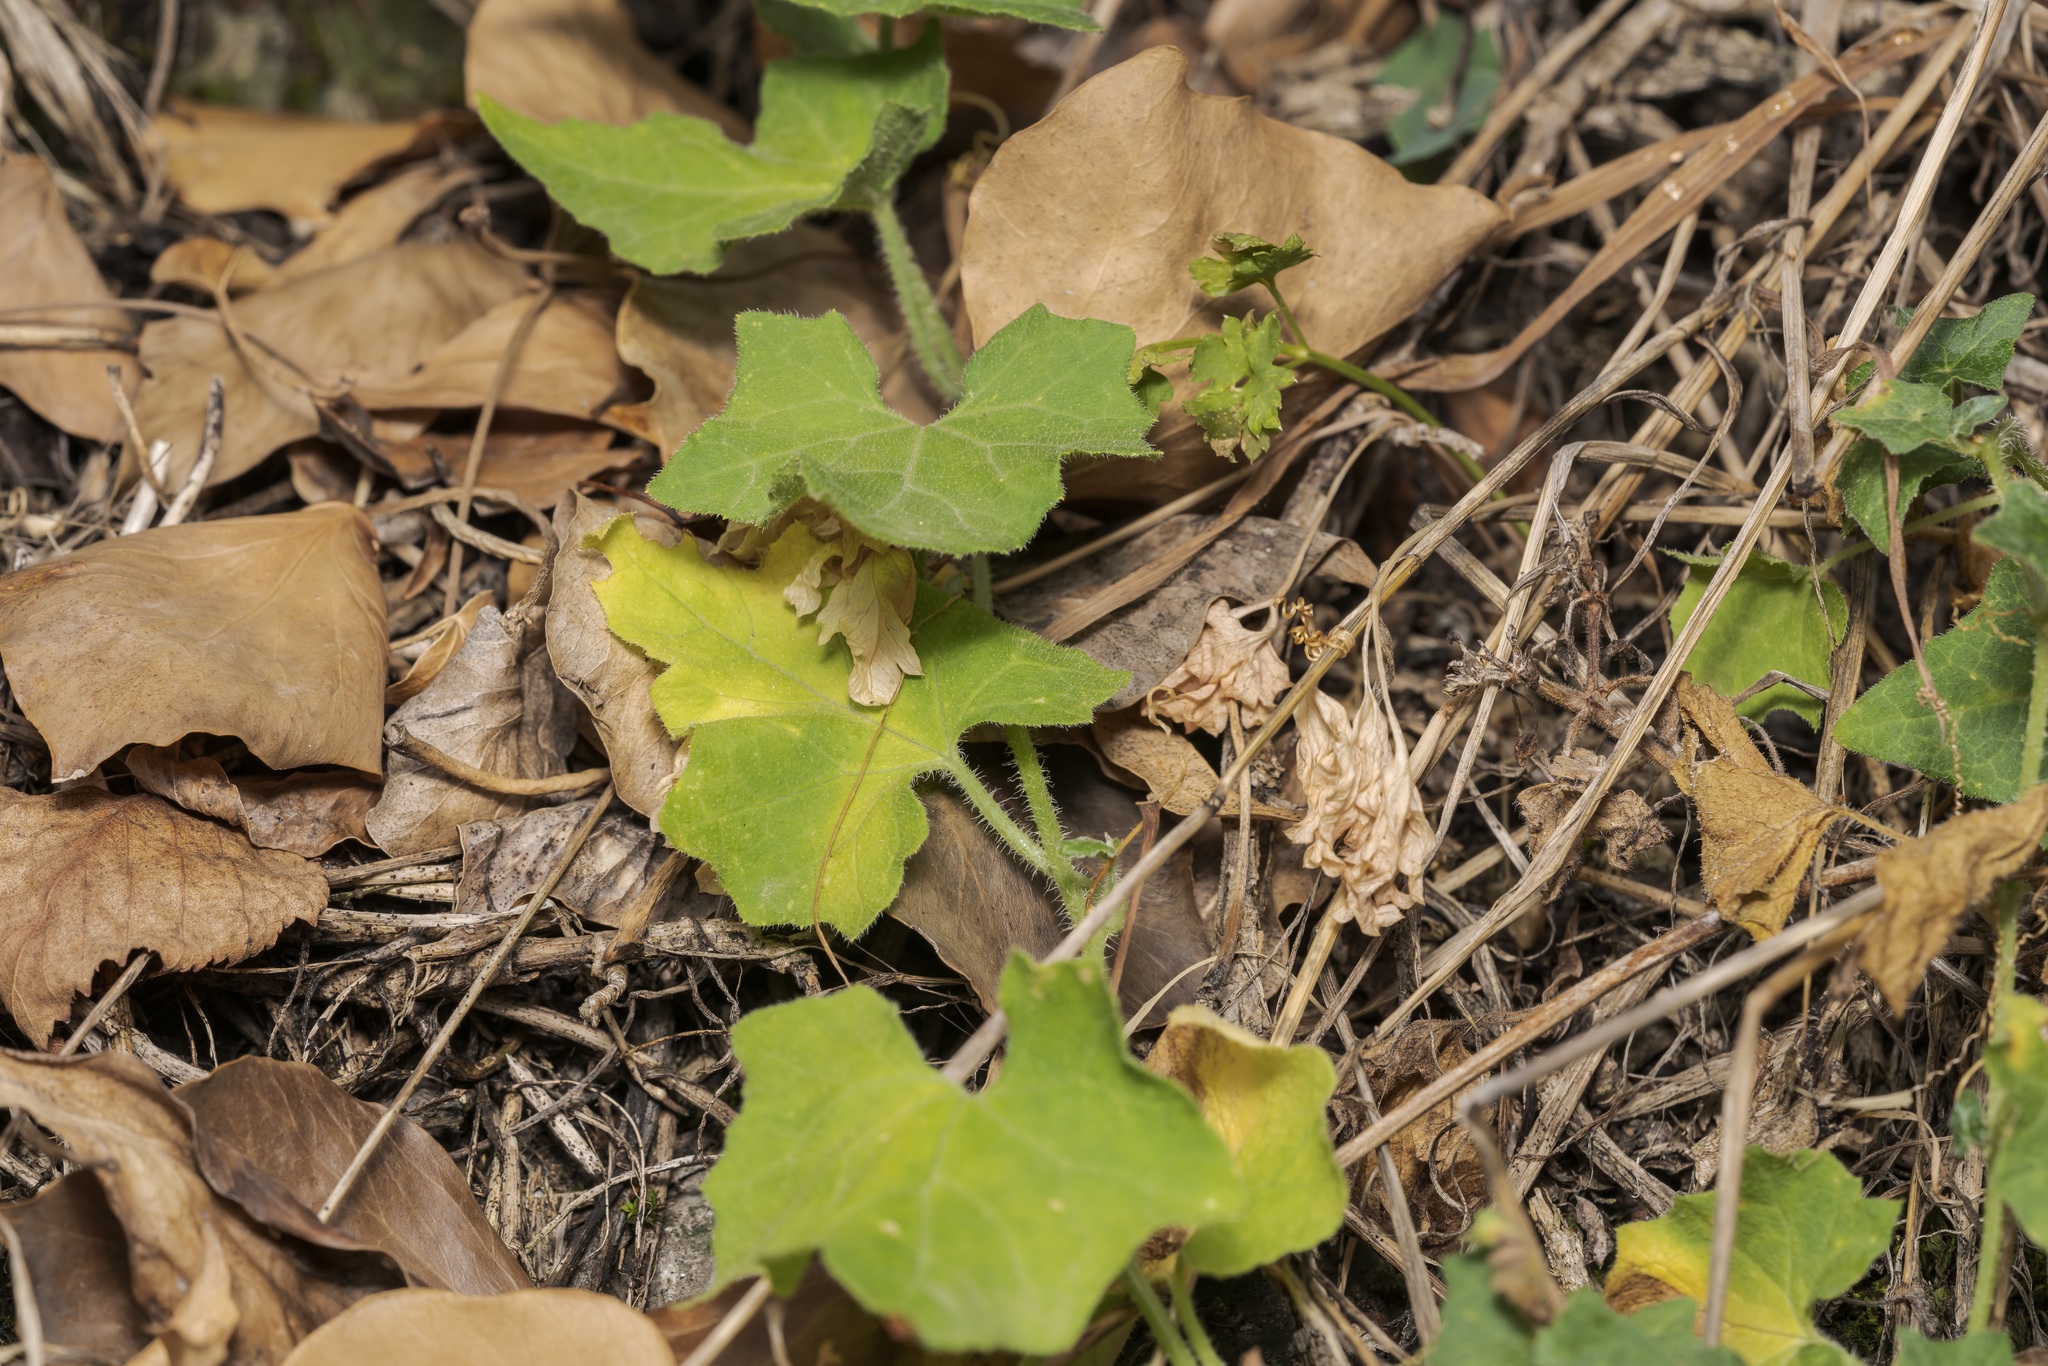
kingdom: Plantae
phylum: Tracheophyta
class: Magnoliopsida
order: Cucurbitales
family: Cucurbitaceae
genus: Bryonia
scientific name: Bryonia cretica
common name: Cretan bryony
